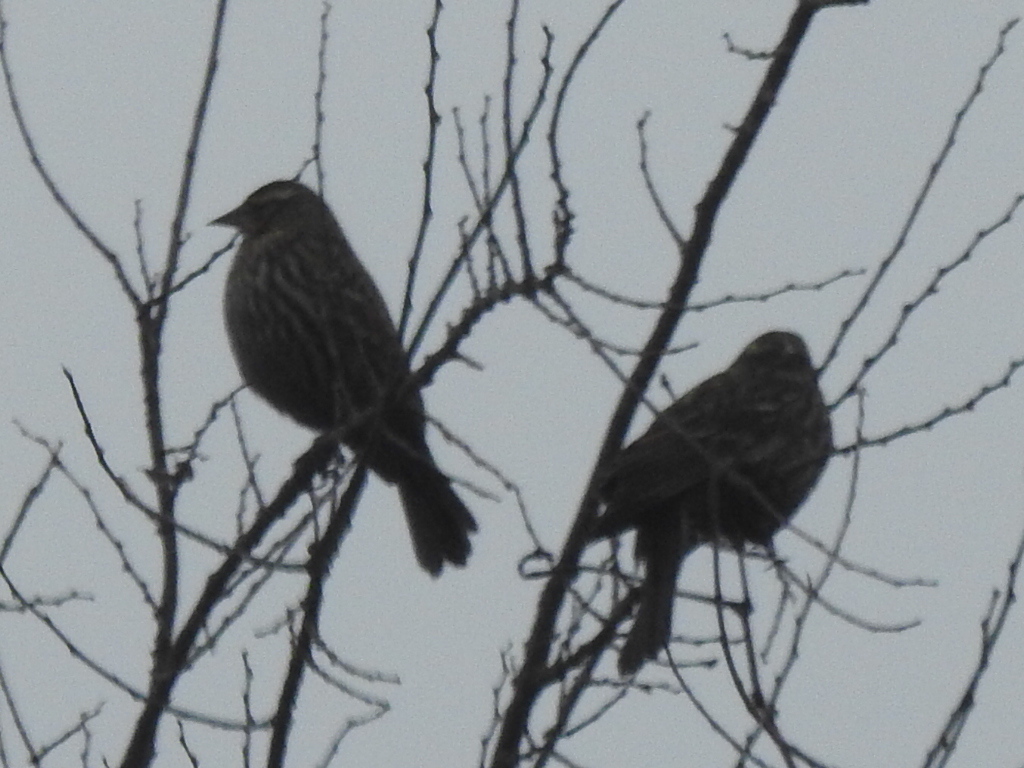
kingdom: Animalia
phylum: Chordata
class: Aves
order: Passeriformes
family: Icteridae
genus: Agelaius
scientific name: Agelaius phoeniceus
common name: Red-winged blackbird
